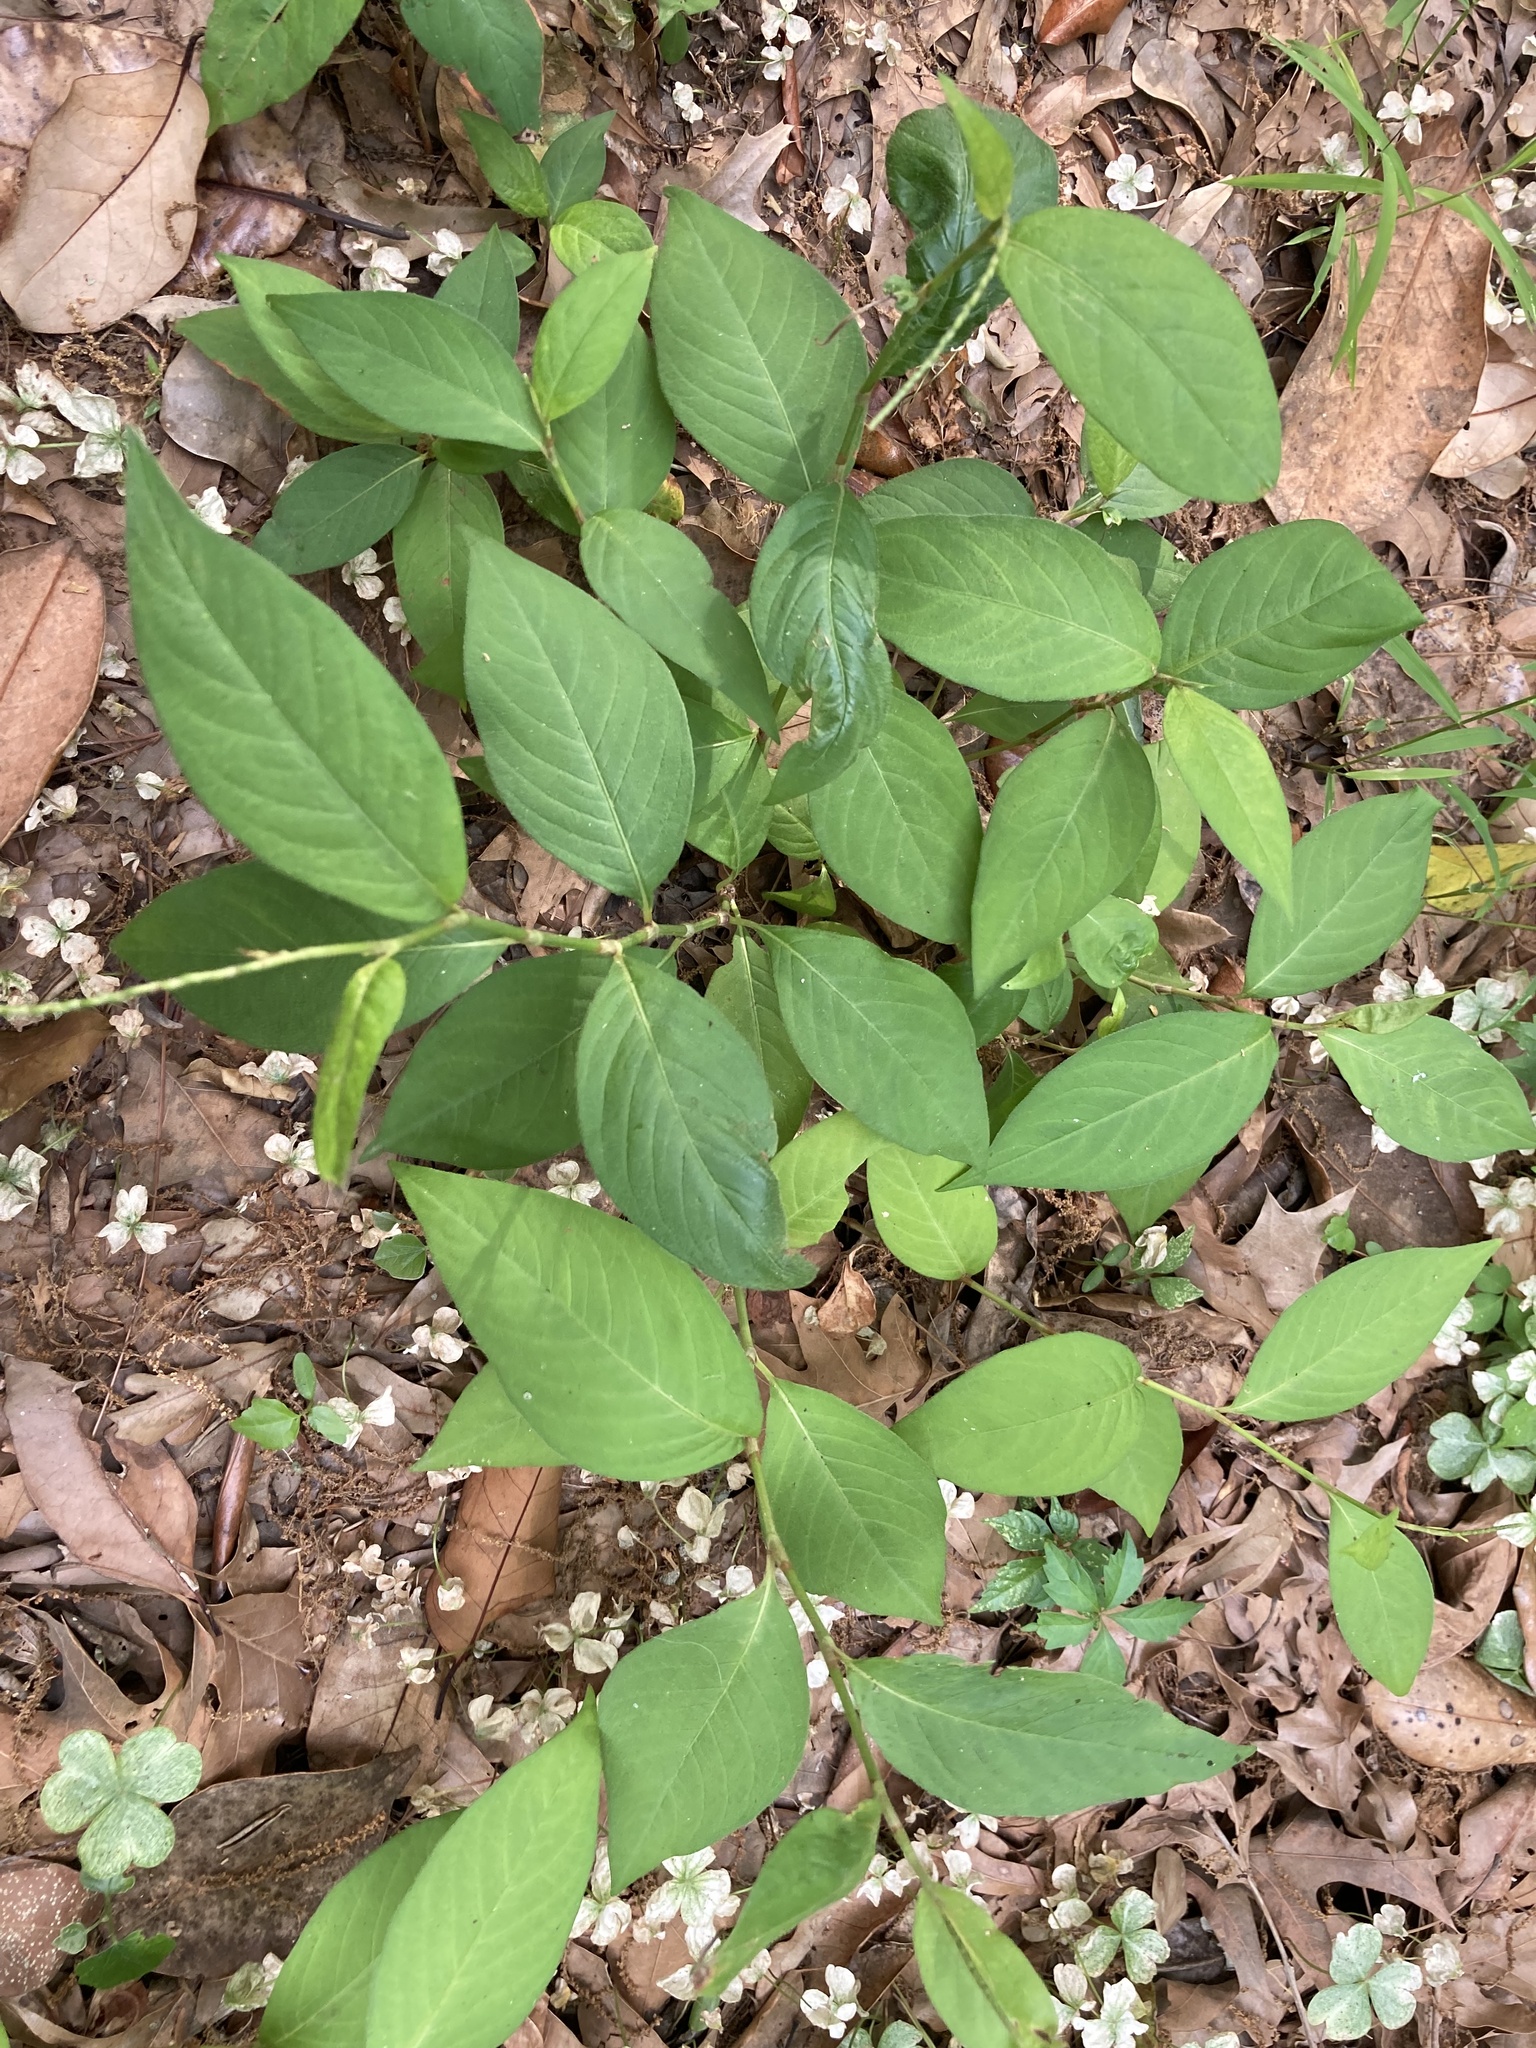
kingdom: Plantae
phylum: Tracheophyta
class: Magnoliopsida
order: Caryophyllales
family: Polygonaceae
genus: Persicaria
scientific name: Persicaria virginiana
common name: Jumpseed
